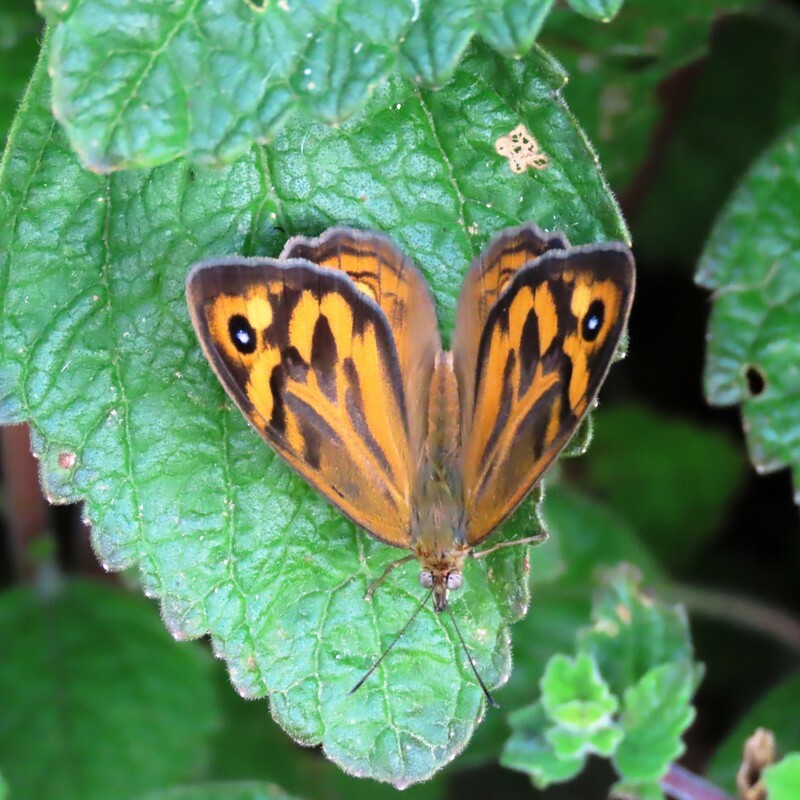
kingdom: Animalia
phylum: Arthropoda
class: Insecta
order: Lepidoptera
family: Nymphalidae
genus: Heteronympha
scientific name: Heteronympha merope
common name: Common brown
